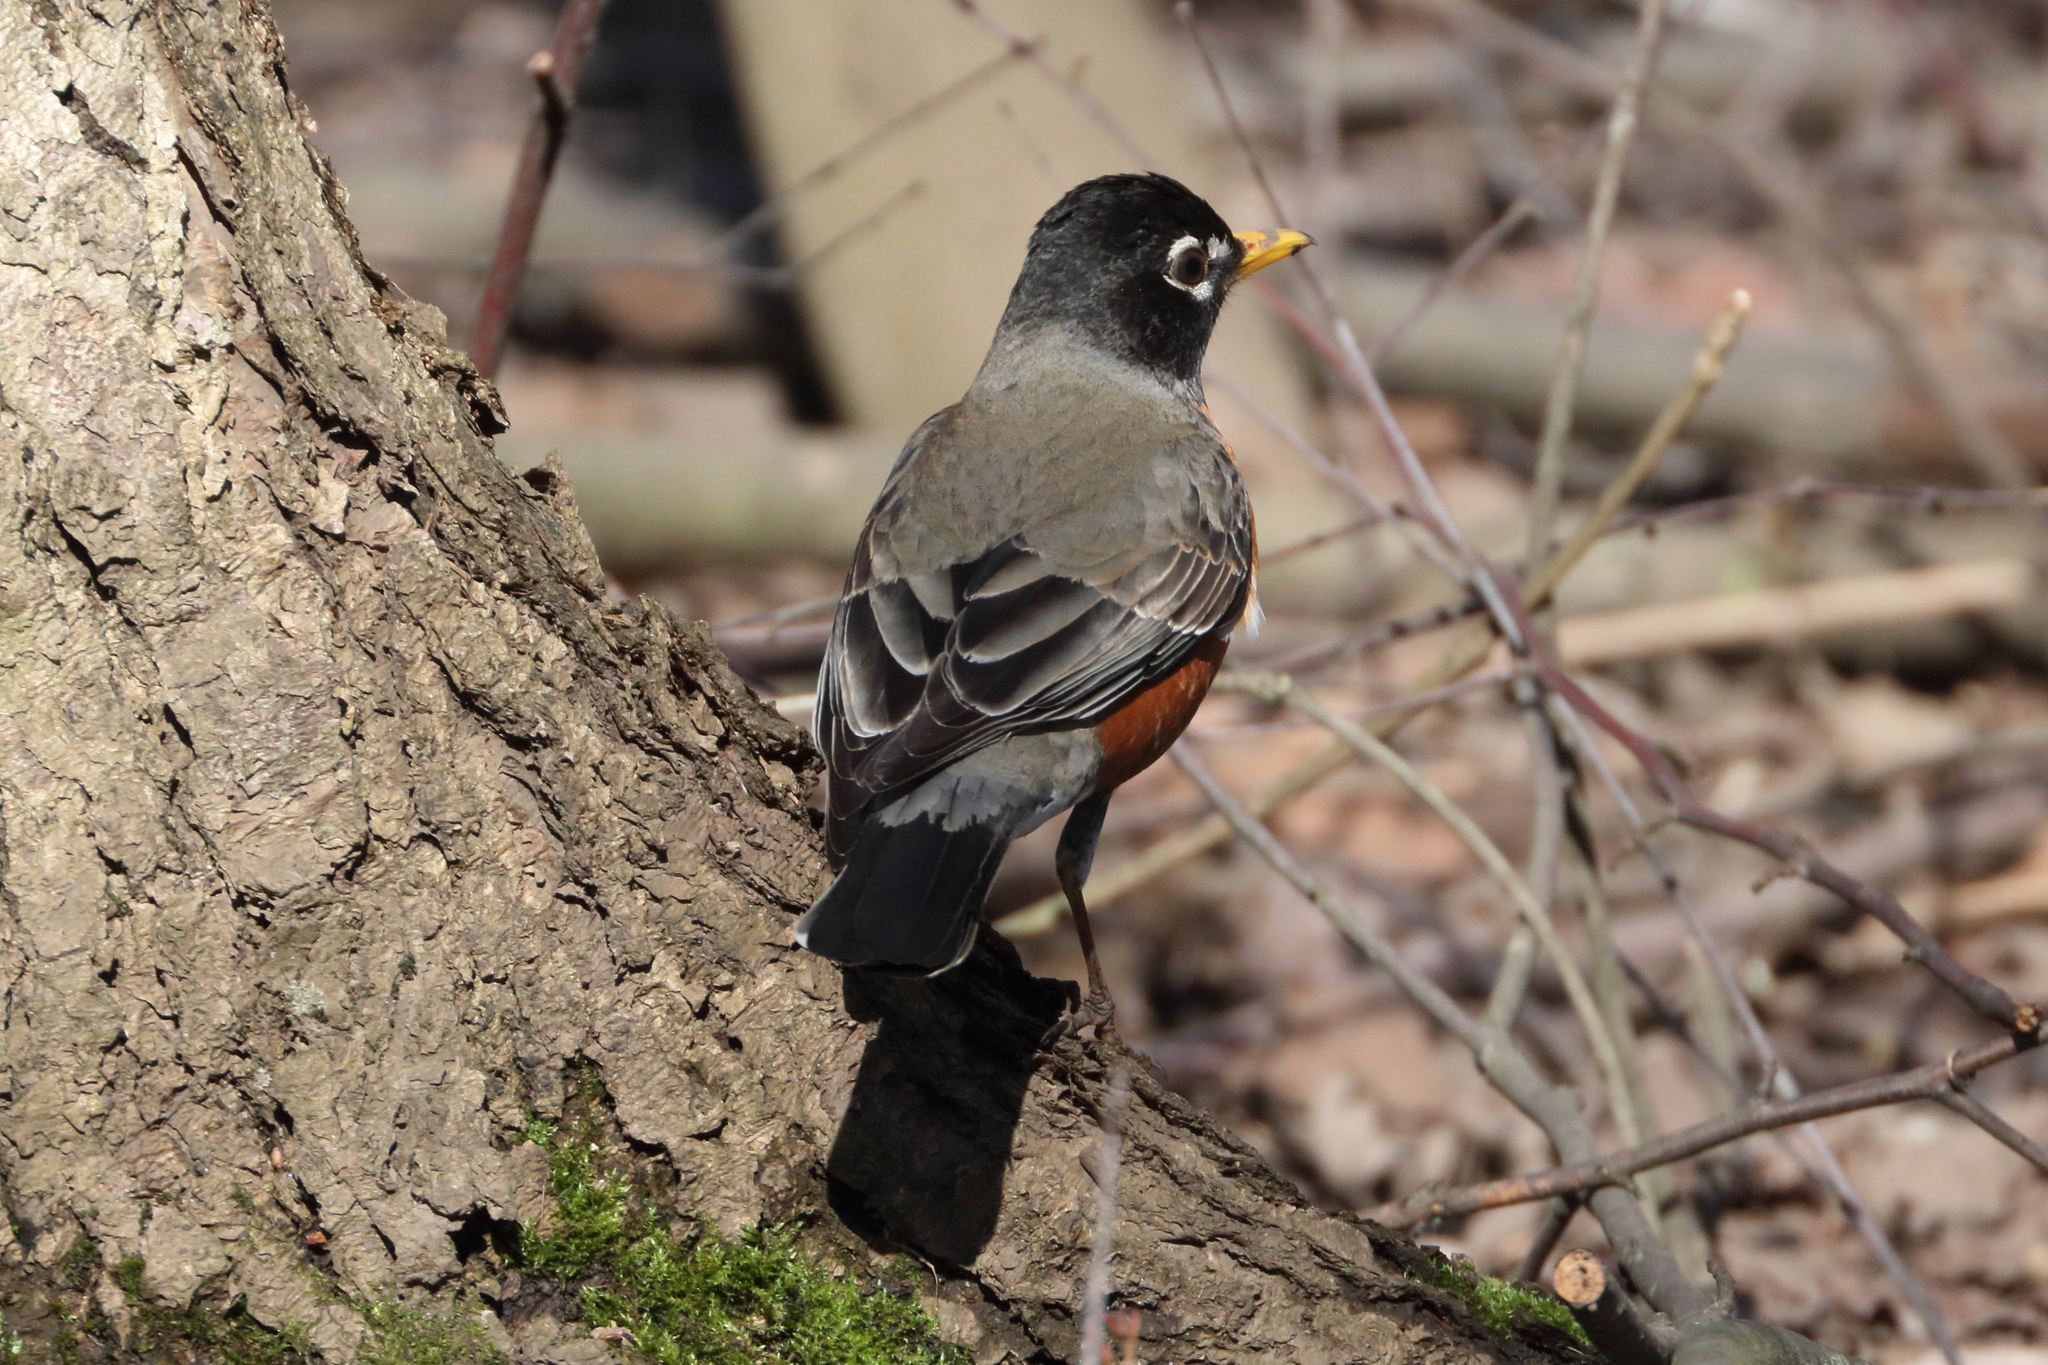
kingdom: Animalia
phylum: Chordata
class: Aves
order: Passeriformes
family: Turdidae
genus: Turdus
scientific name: Turdus migratorius
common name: American robin
